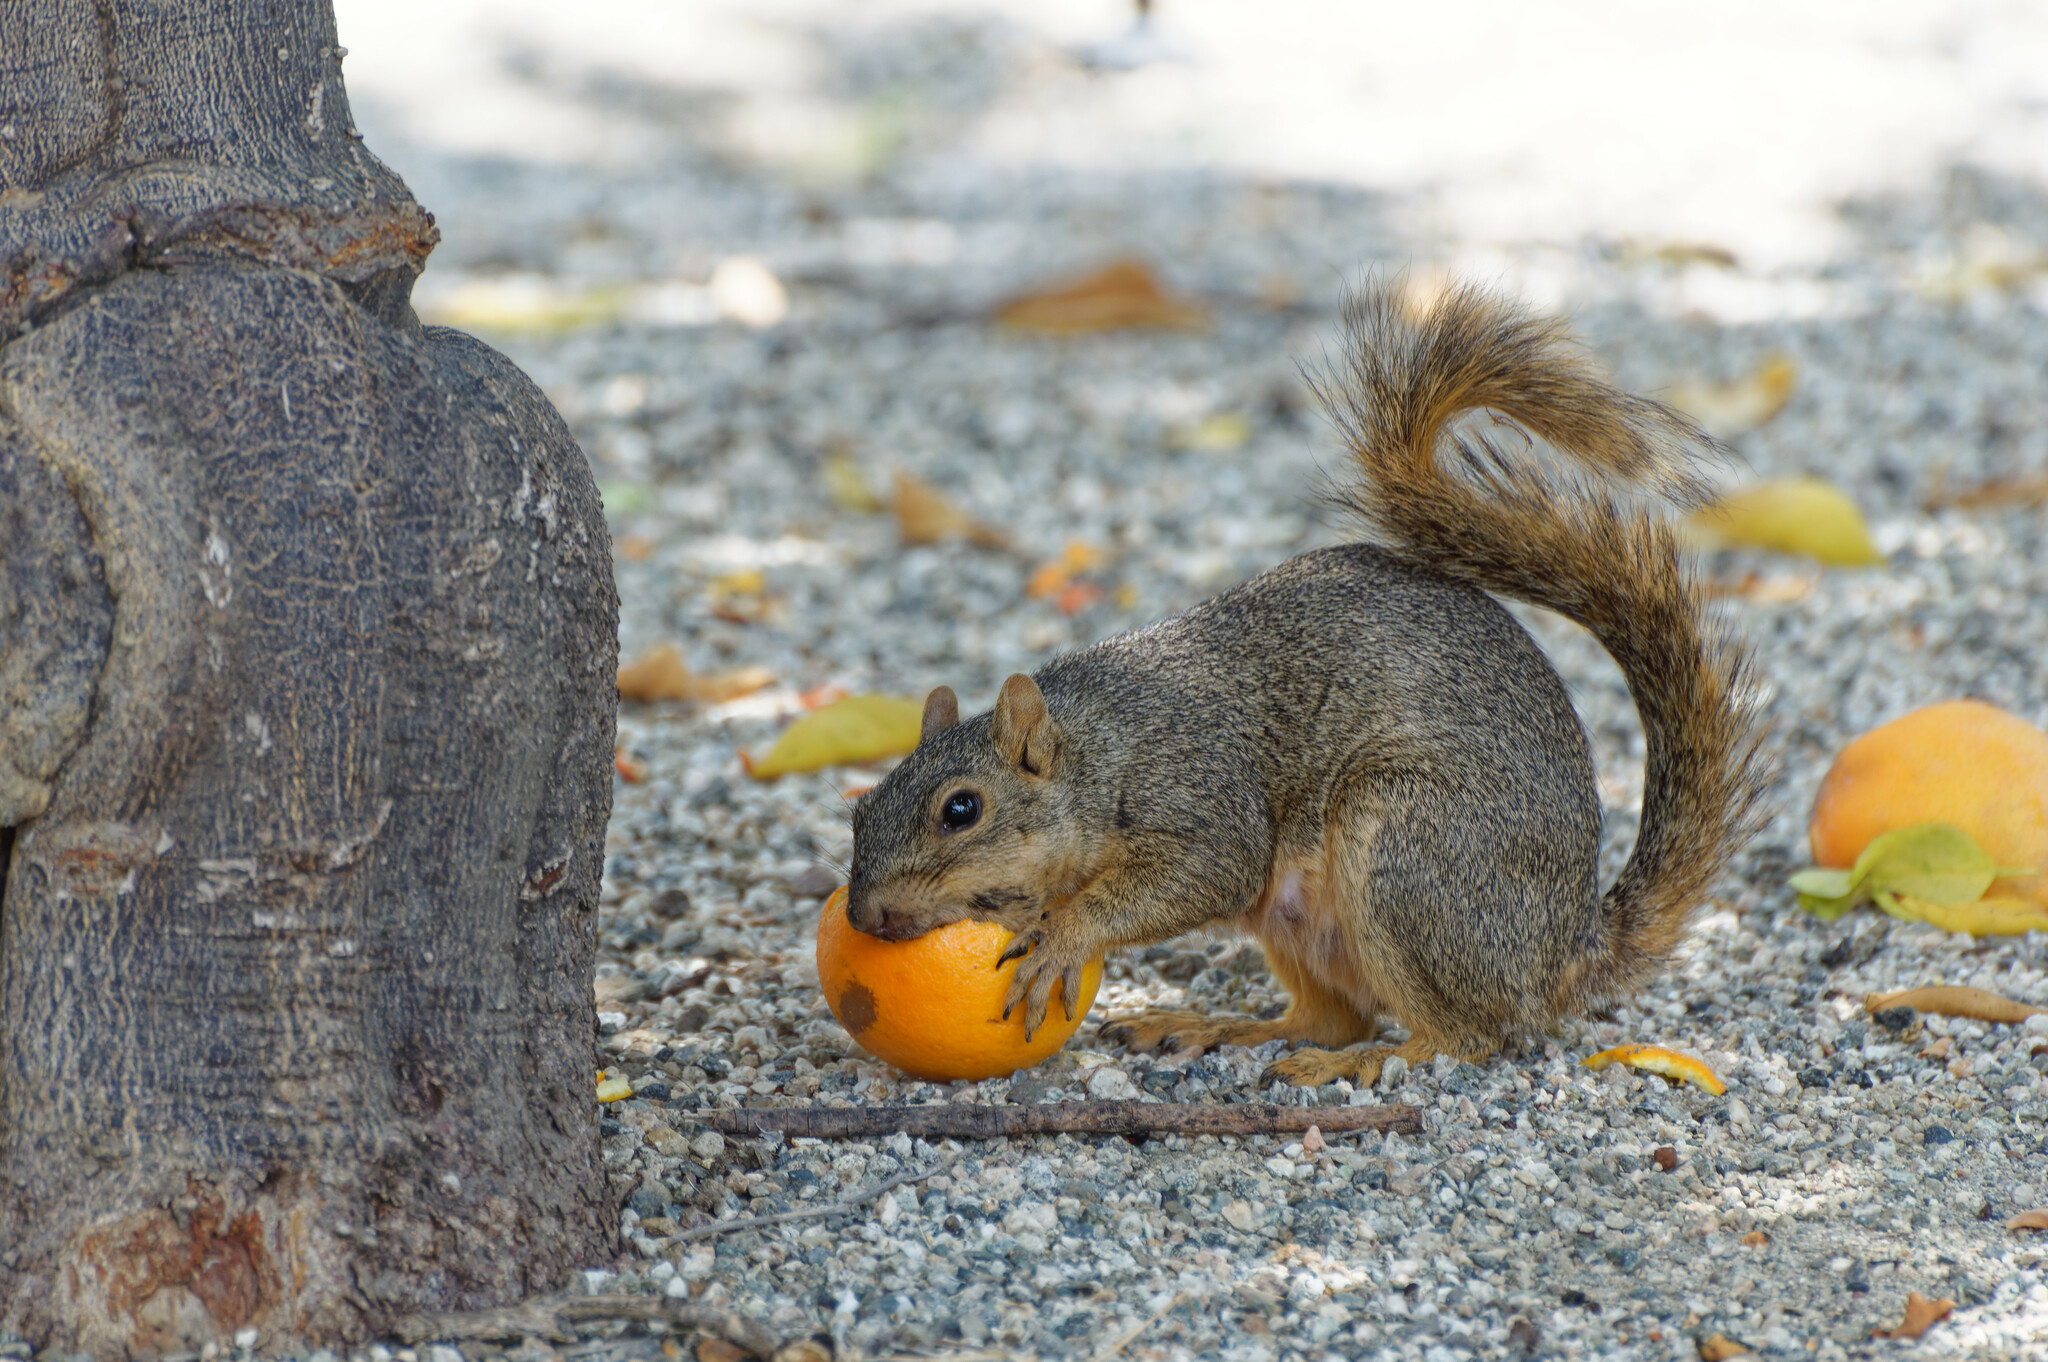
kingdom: Animalia
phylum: Chordata
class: Mammalia
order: Rodentia
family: Sciuridae
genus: Sciurus
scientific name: Sciurus niger
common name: Fox squirrel
